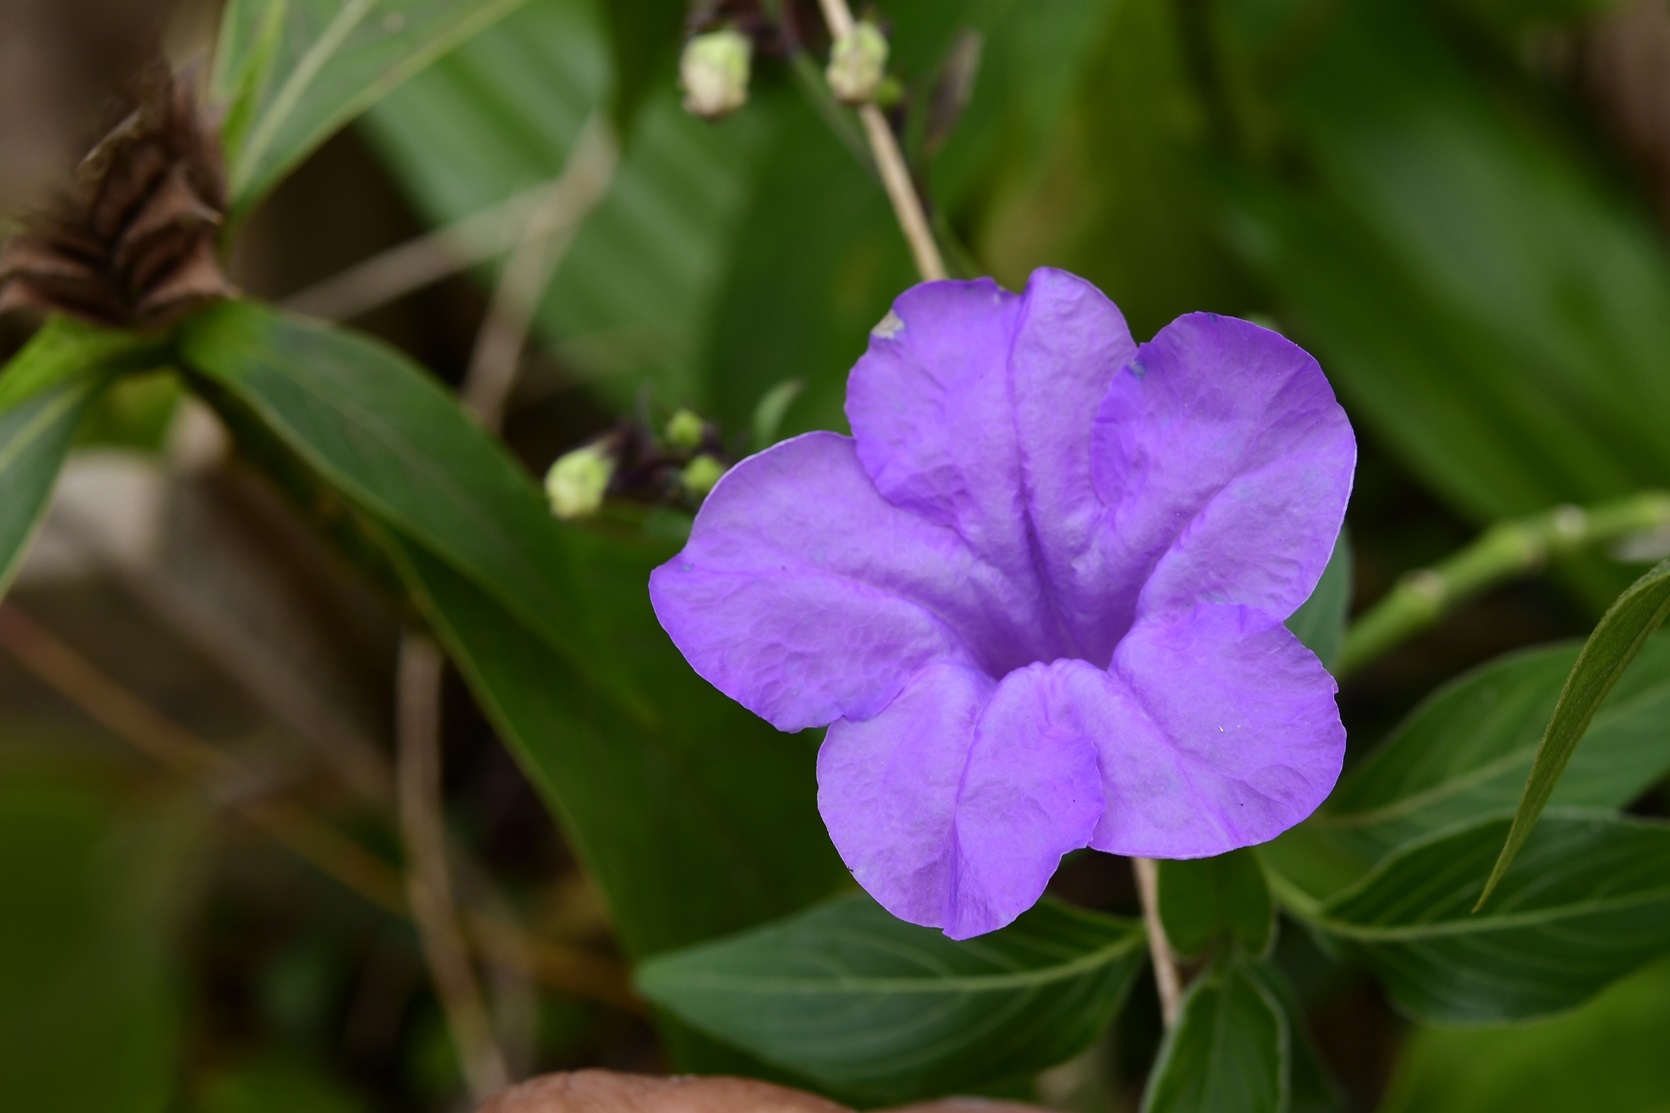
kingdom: Plantae
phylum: Tracheophyta
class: Magnoliopsida
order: Lamiales
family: Acanthaceae
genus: Ruellia
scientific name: Ruellia breedlovei
